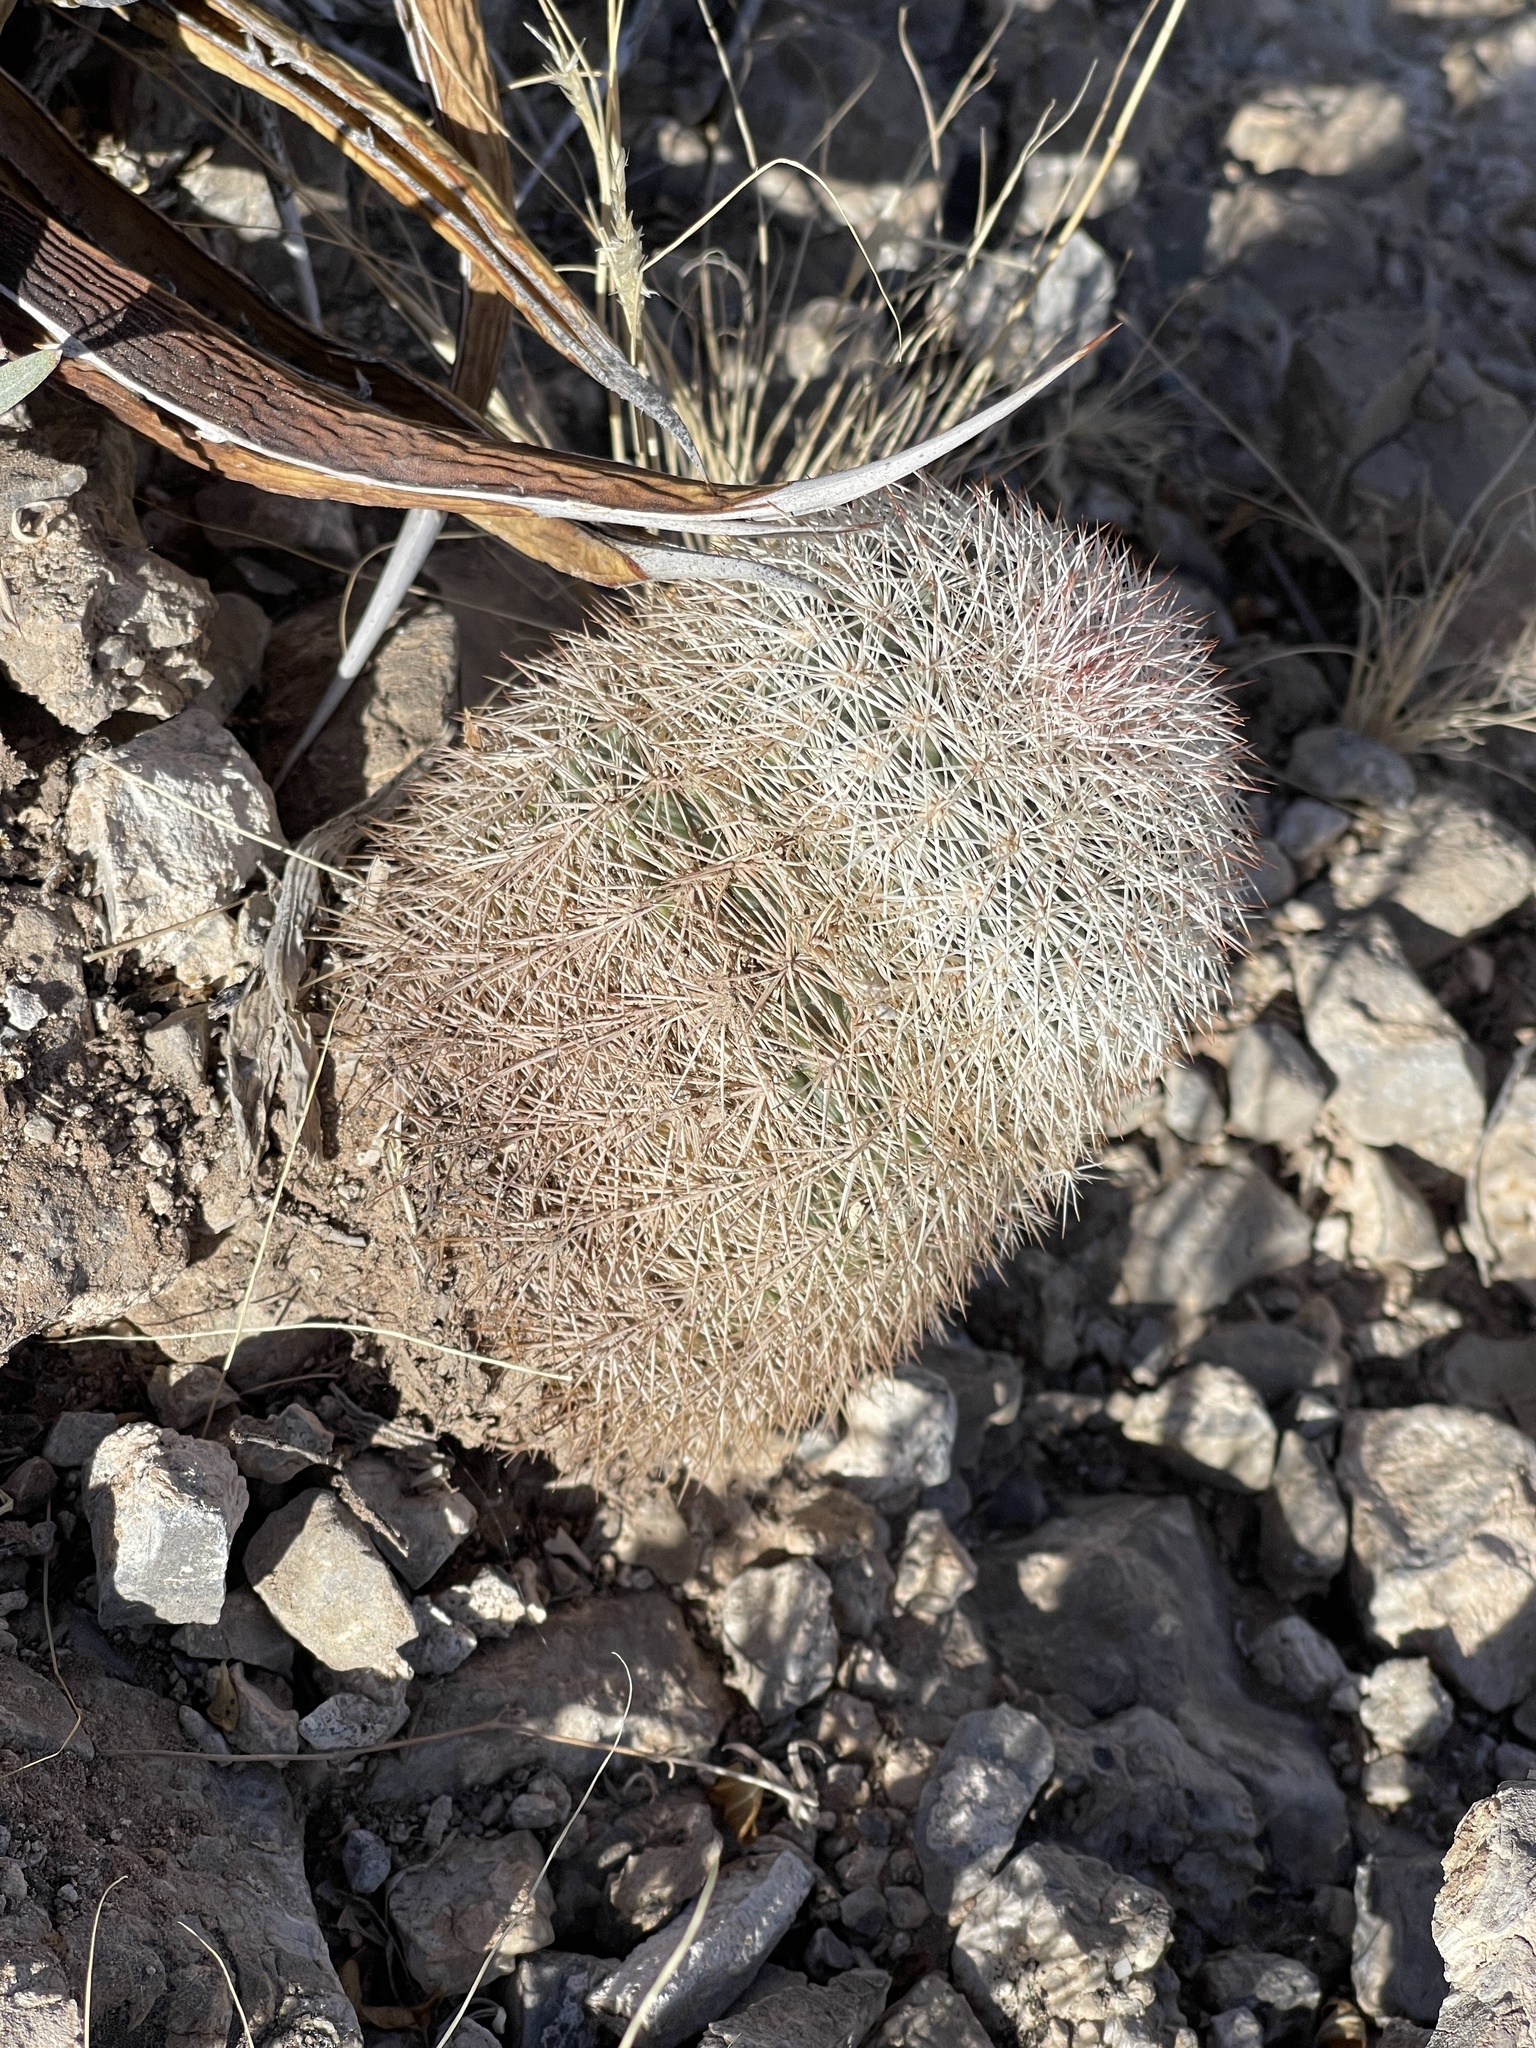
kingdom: Plantae
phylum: Tracheophyta
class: Magnoliopsida
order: Caryophyllales
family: Cactaceae
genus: Echinocereus
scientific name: Echinocereus dasyacanthus
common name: Spiny hedgehog cactus
